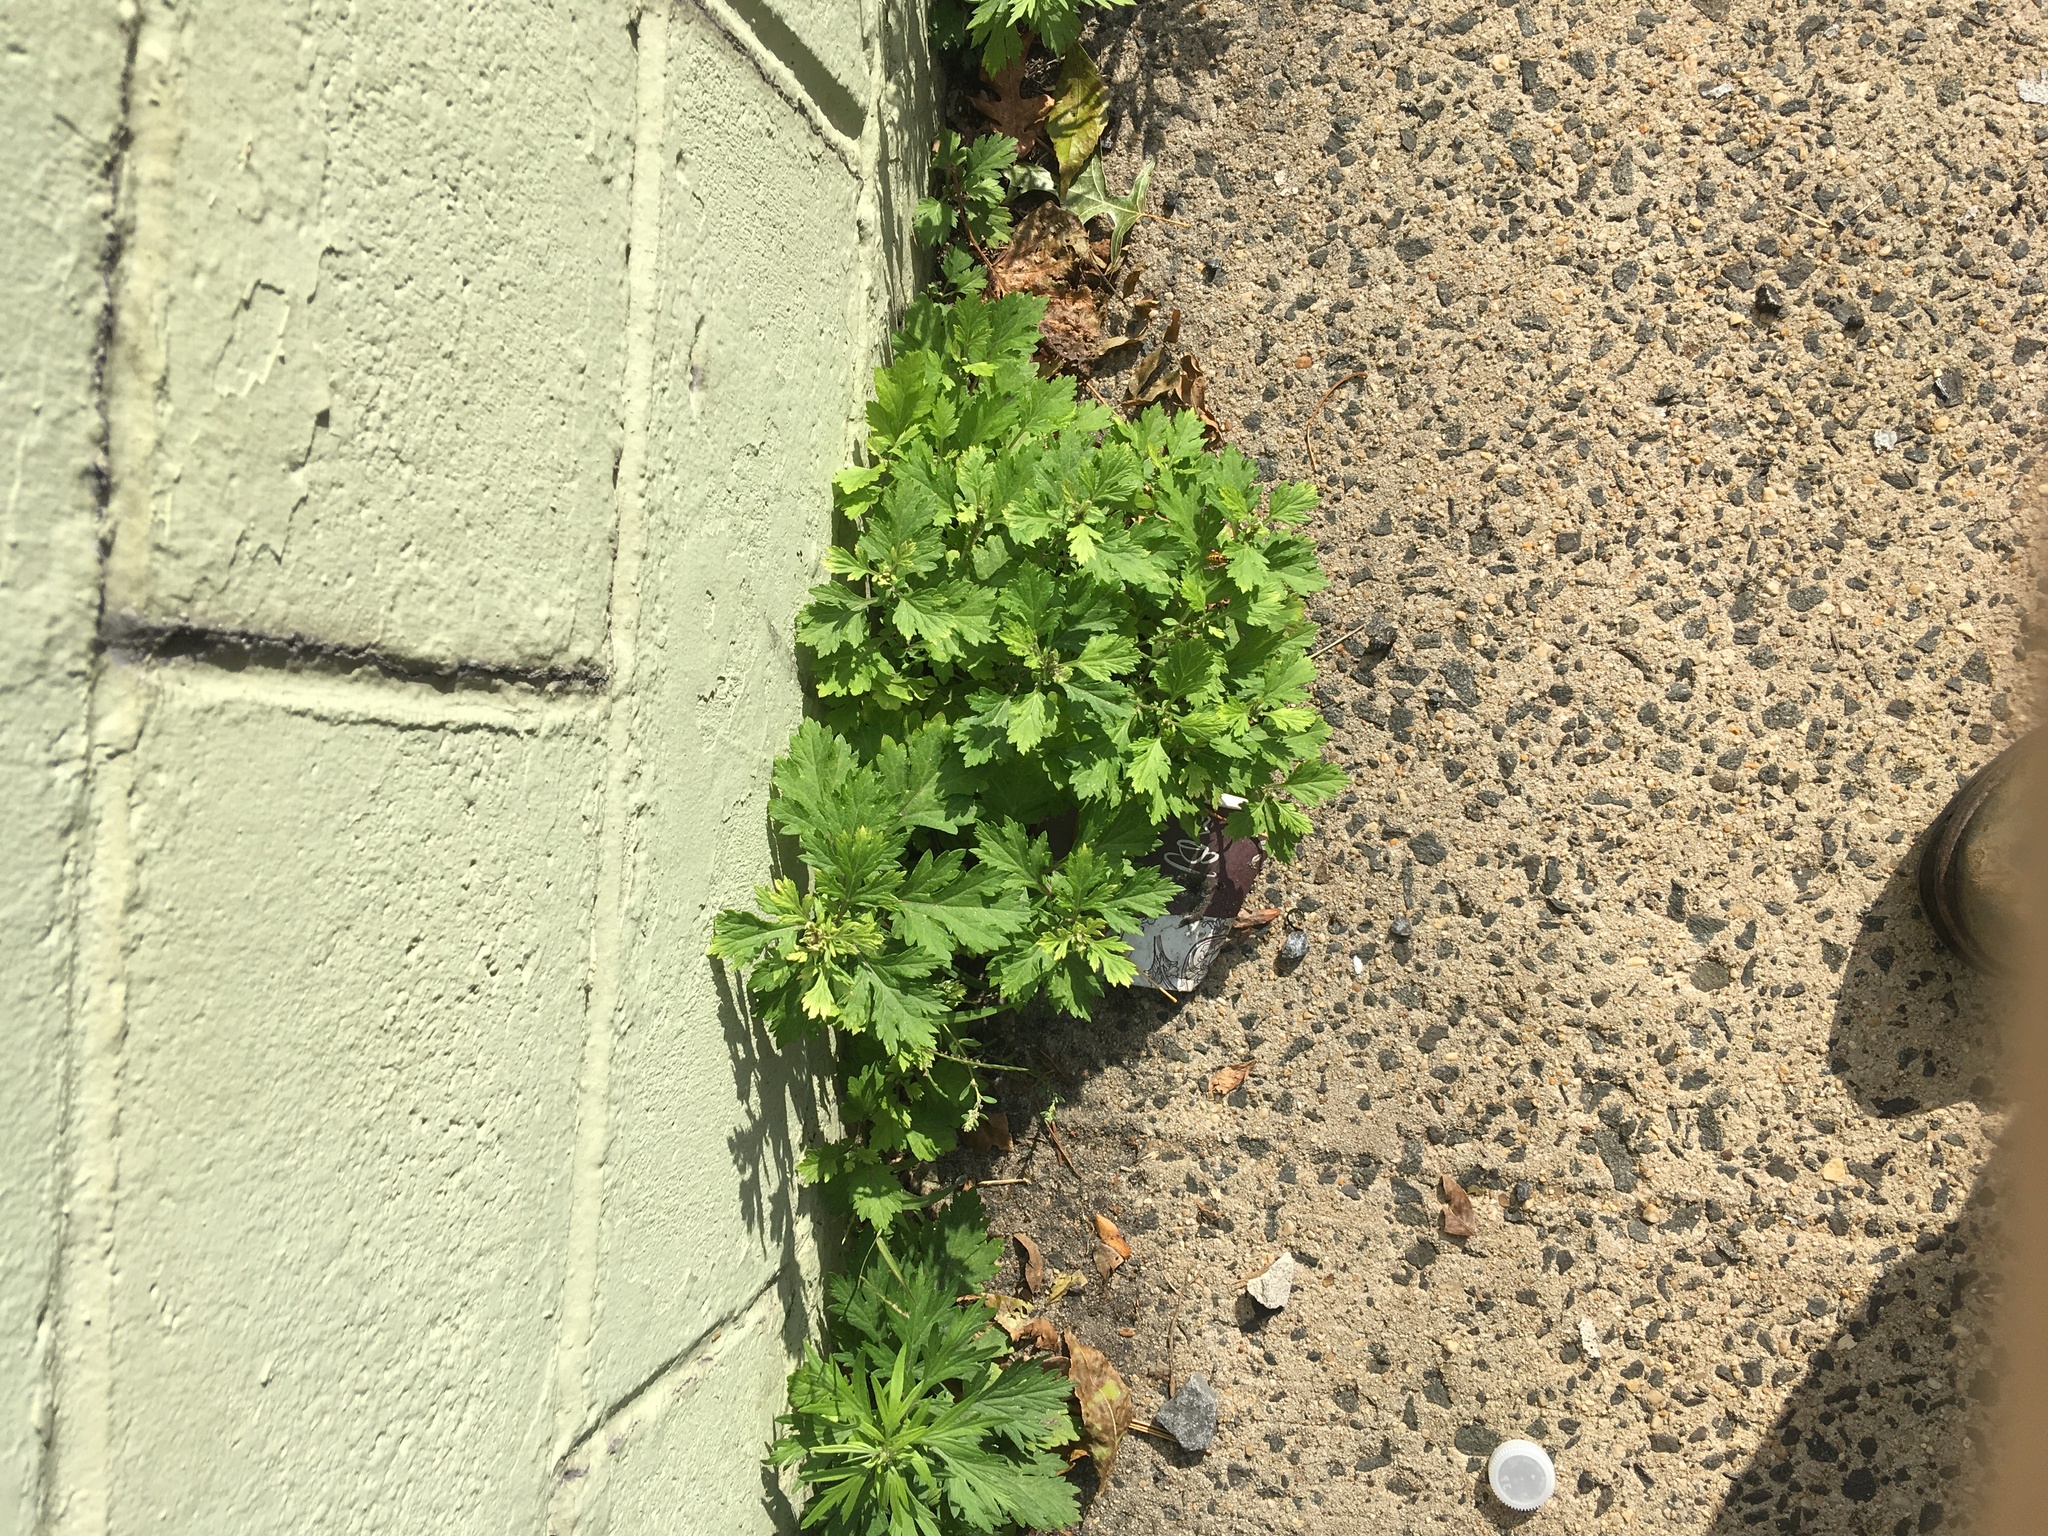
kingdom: Plantae
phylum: Tracheophyta
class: Magnoliopsida
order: Asterales
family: Asteraceae
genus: Artemisia
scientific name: Artemisia vulgaris
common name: Mugwort
